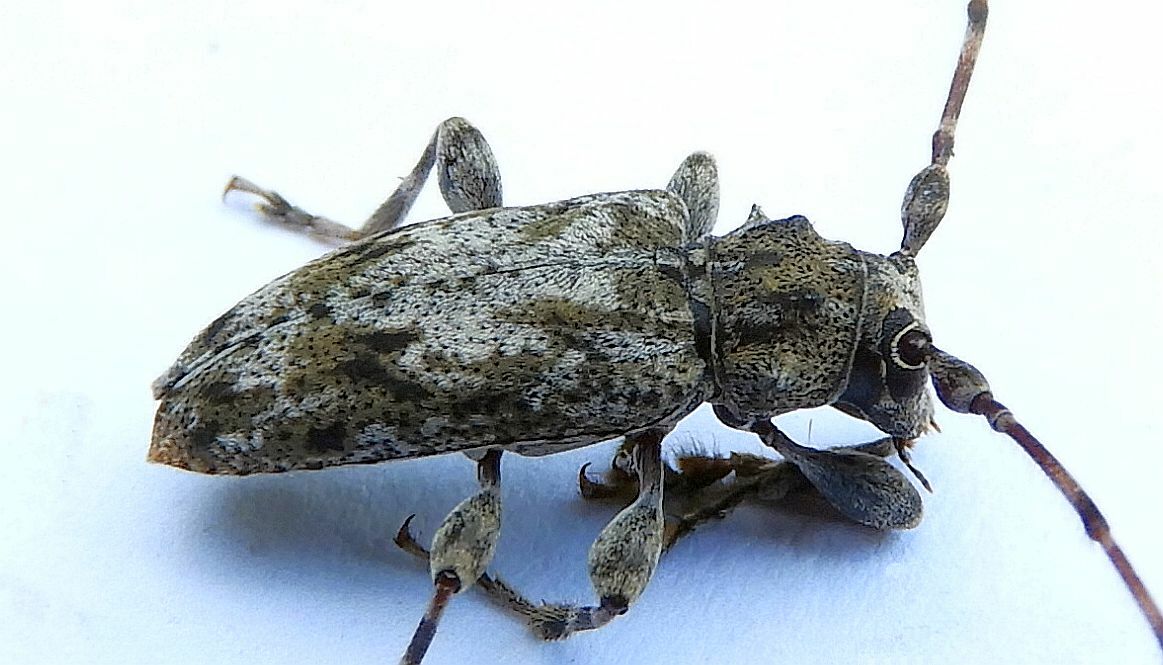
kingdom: Animalia
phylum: Arthropoda
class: Insecta
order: Coleoptera
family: Cerambycidae
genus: Aegomorphus
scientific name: Aegomorphus modestus
